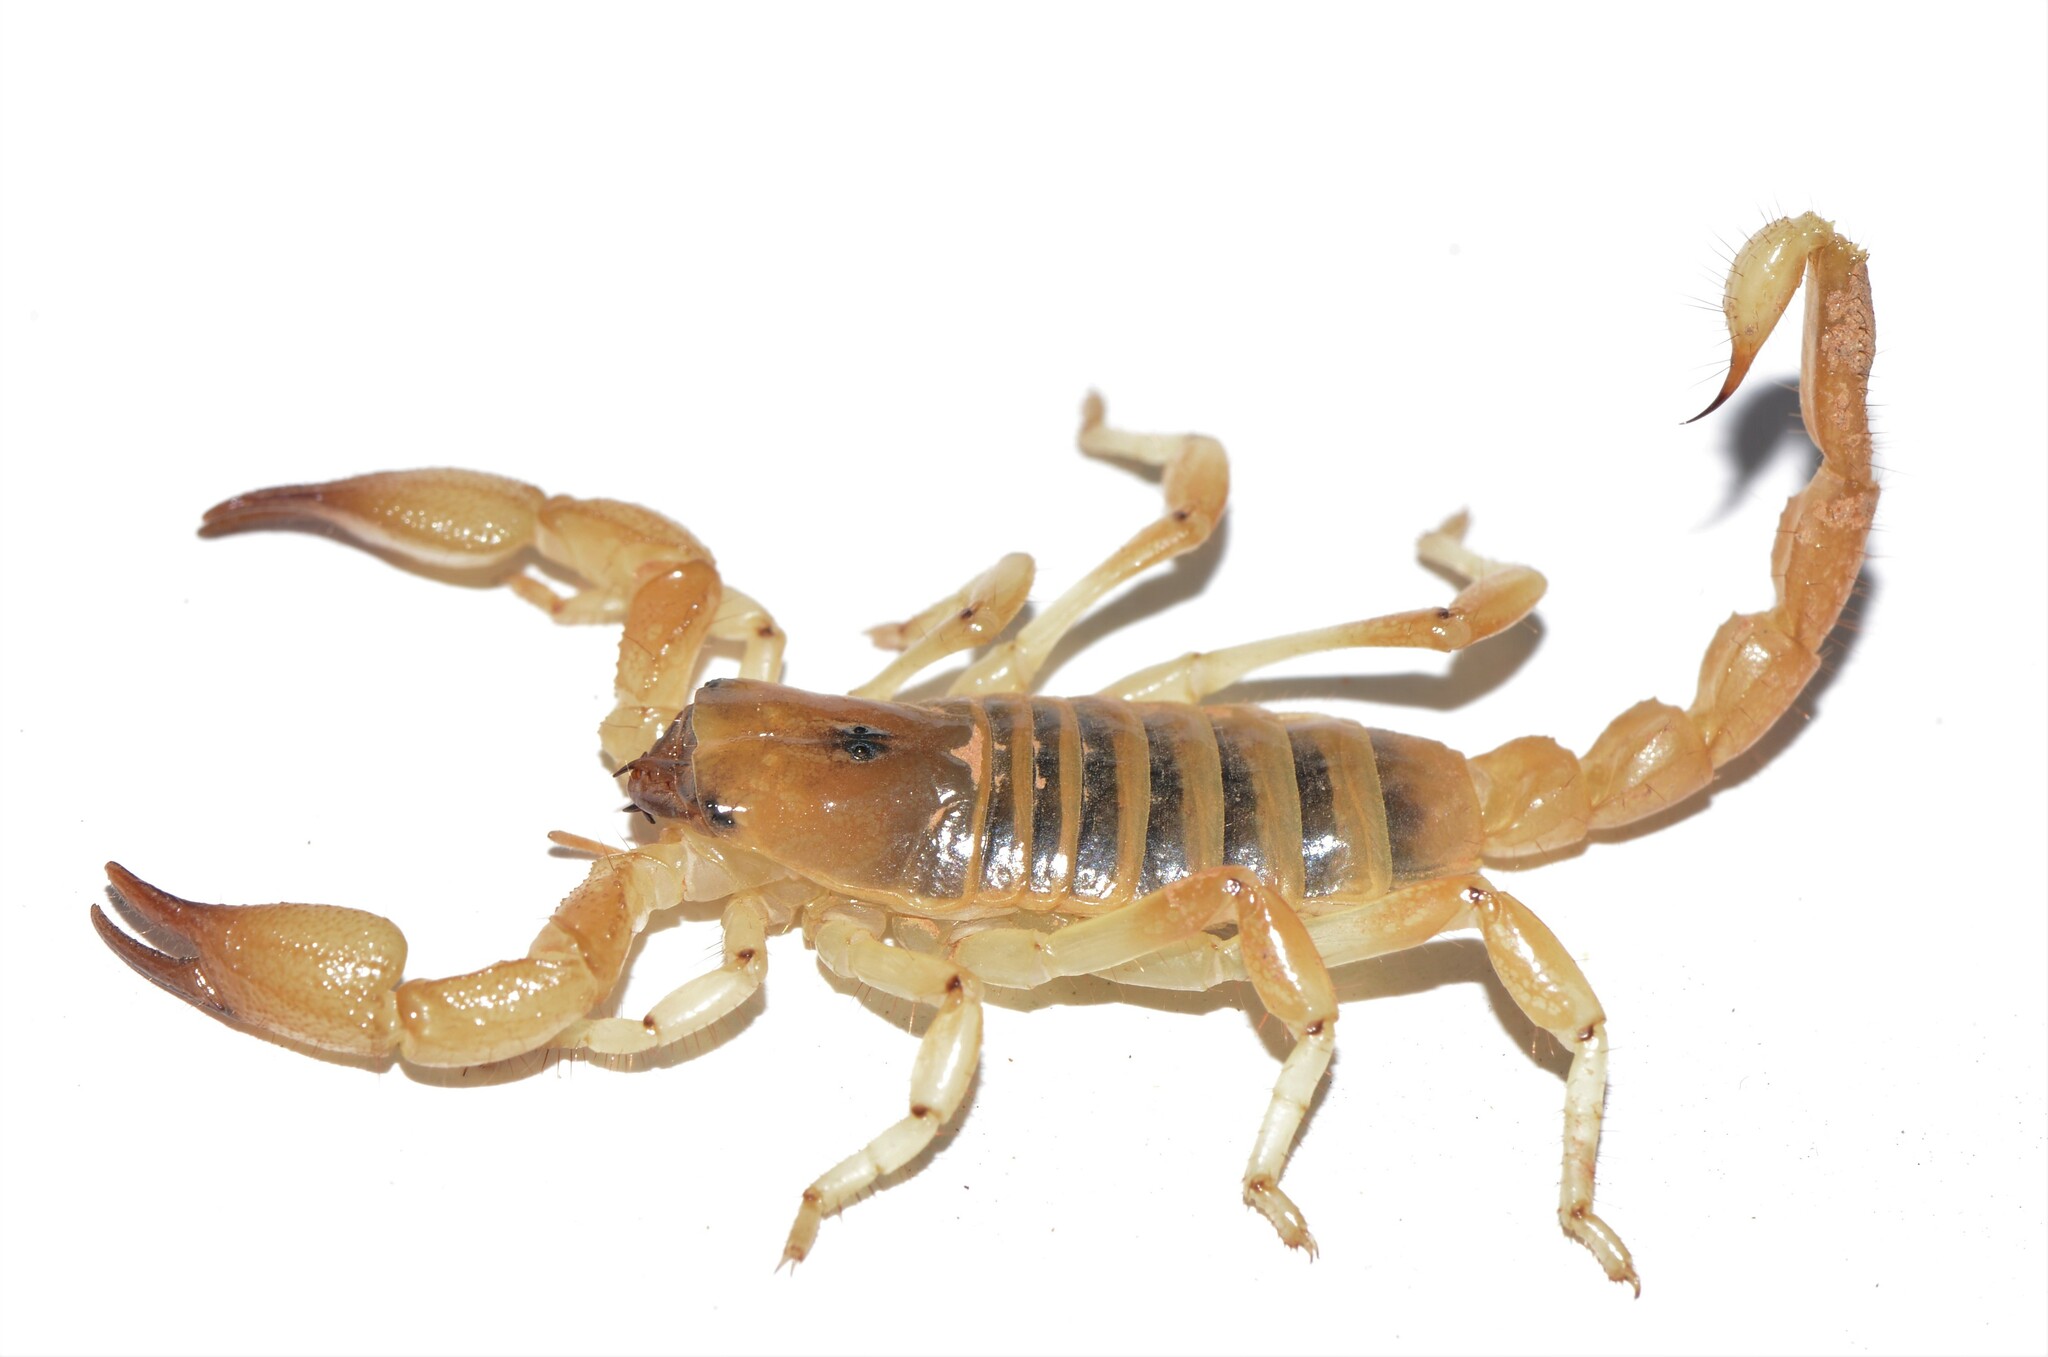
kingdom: Animalia
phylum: Arthropoda
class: Arachnida
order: Scorpiones
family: Scorpionidae
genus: Opistophthalmus
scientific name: Opistophthalmus lornae
